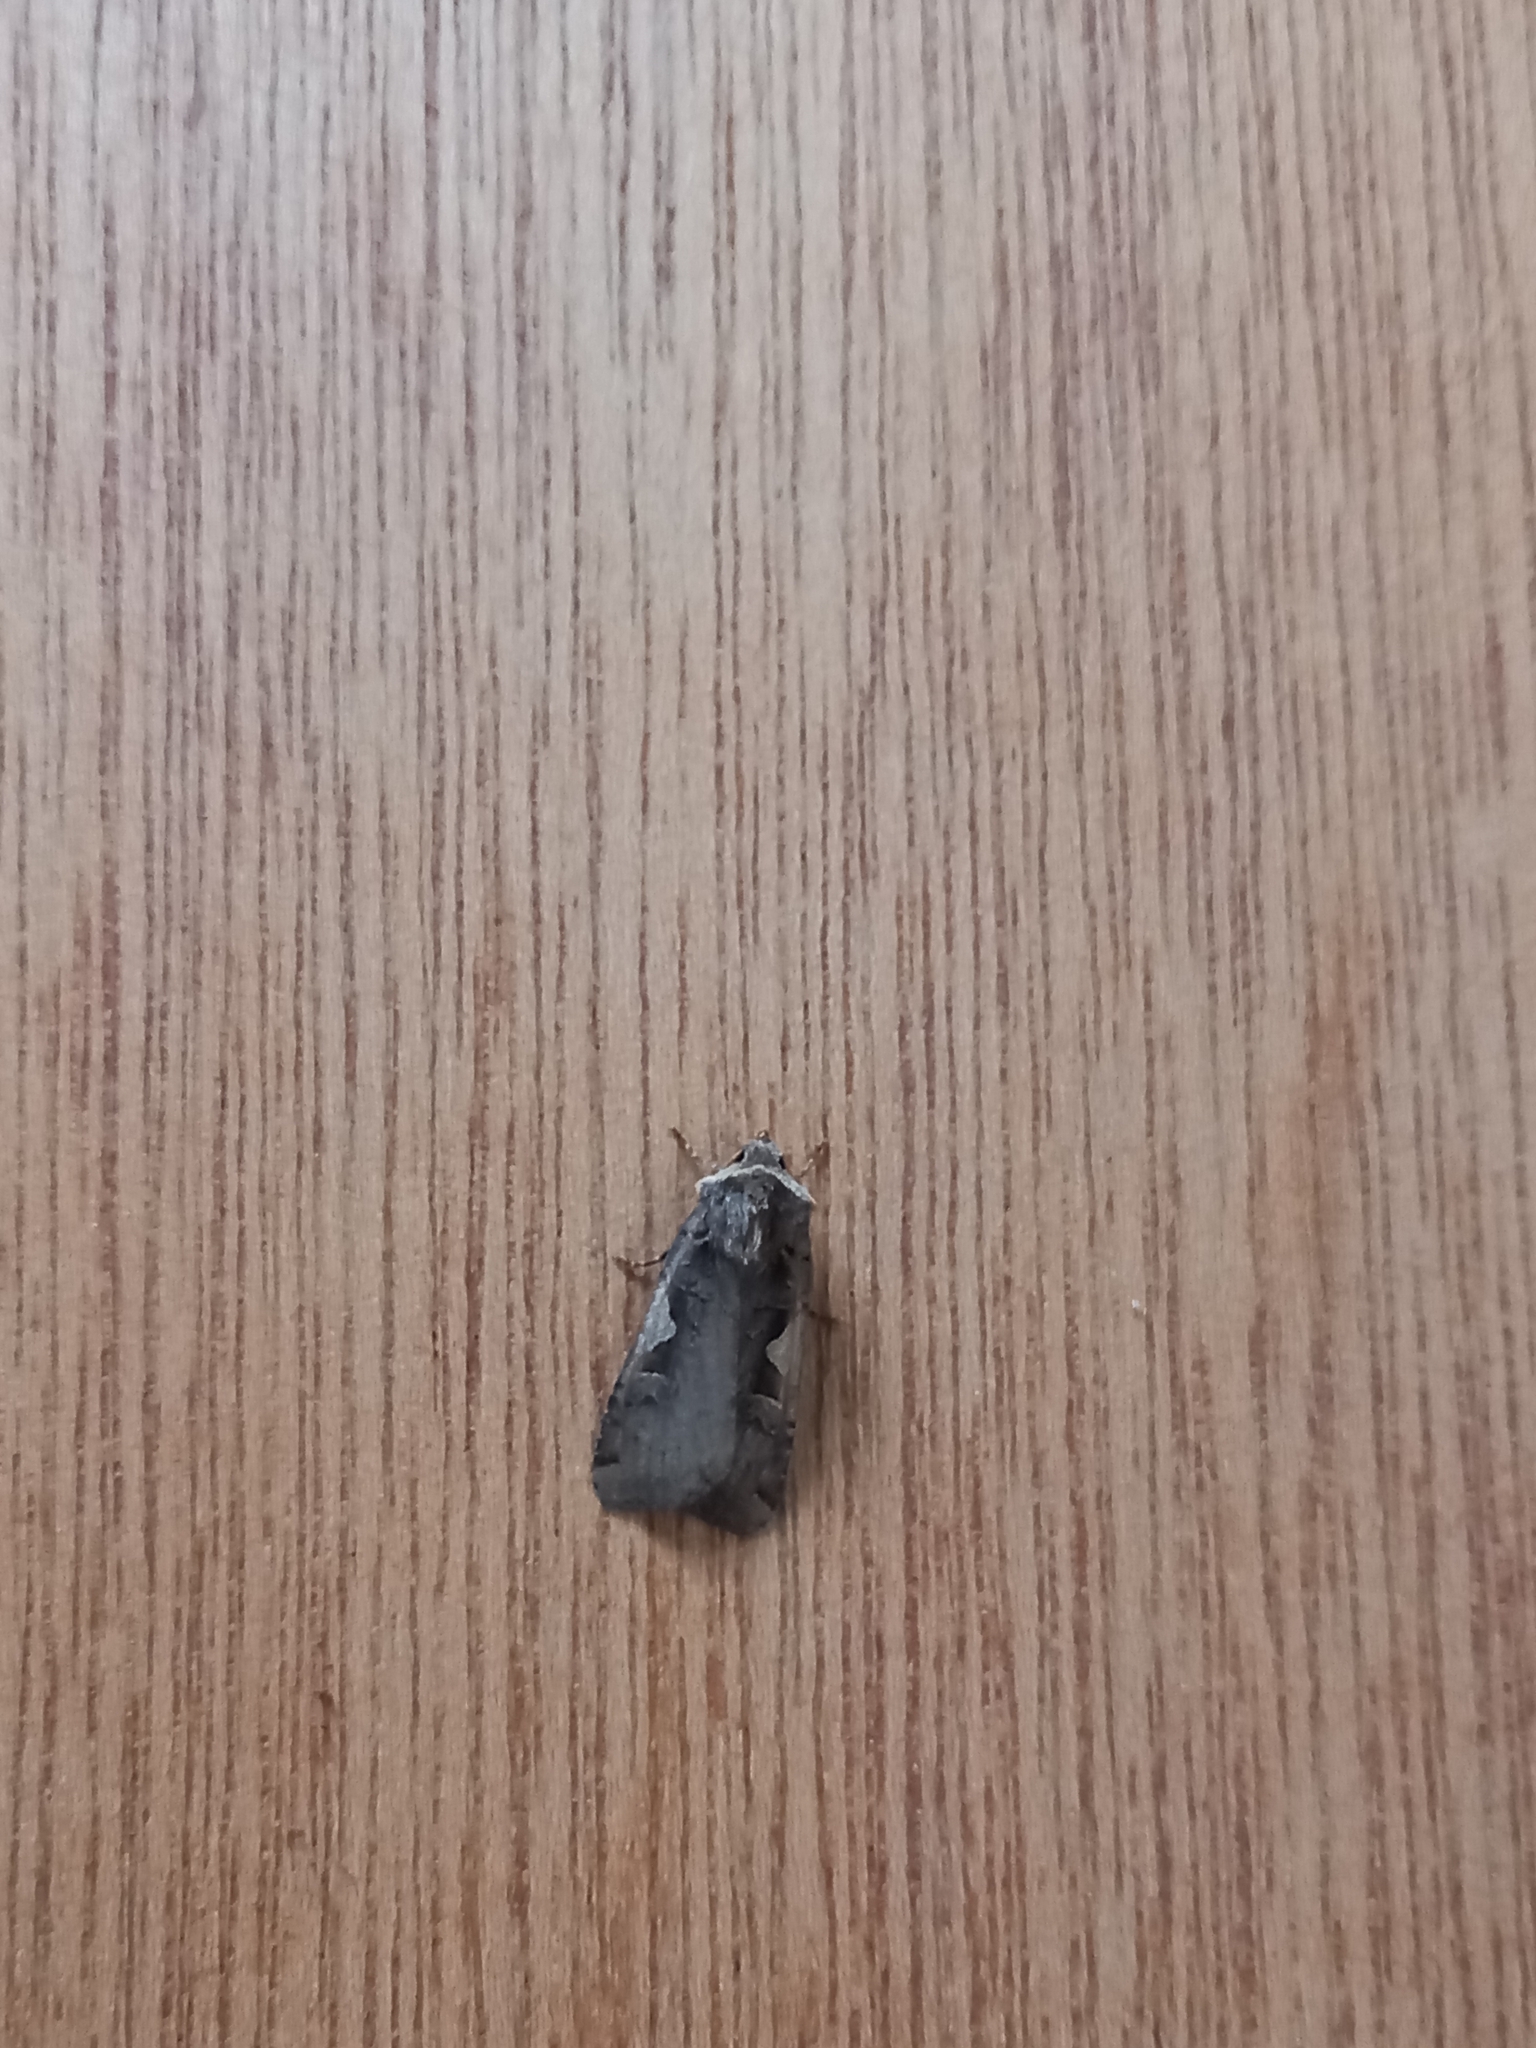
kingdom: Animalia
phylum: Arthropoda
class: Insecta
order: Lepidoptera
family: Noctuidae
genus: Xestia
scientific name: Xestia c-nigrum
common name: Setaceous hebrew character
